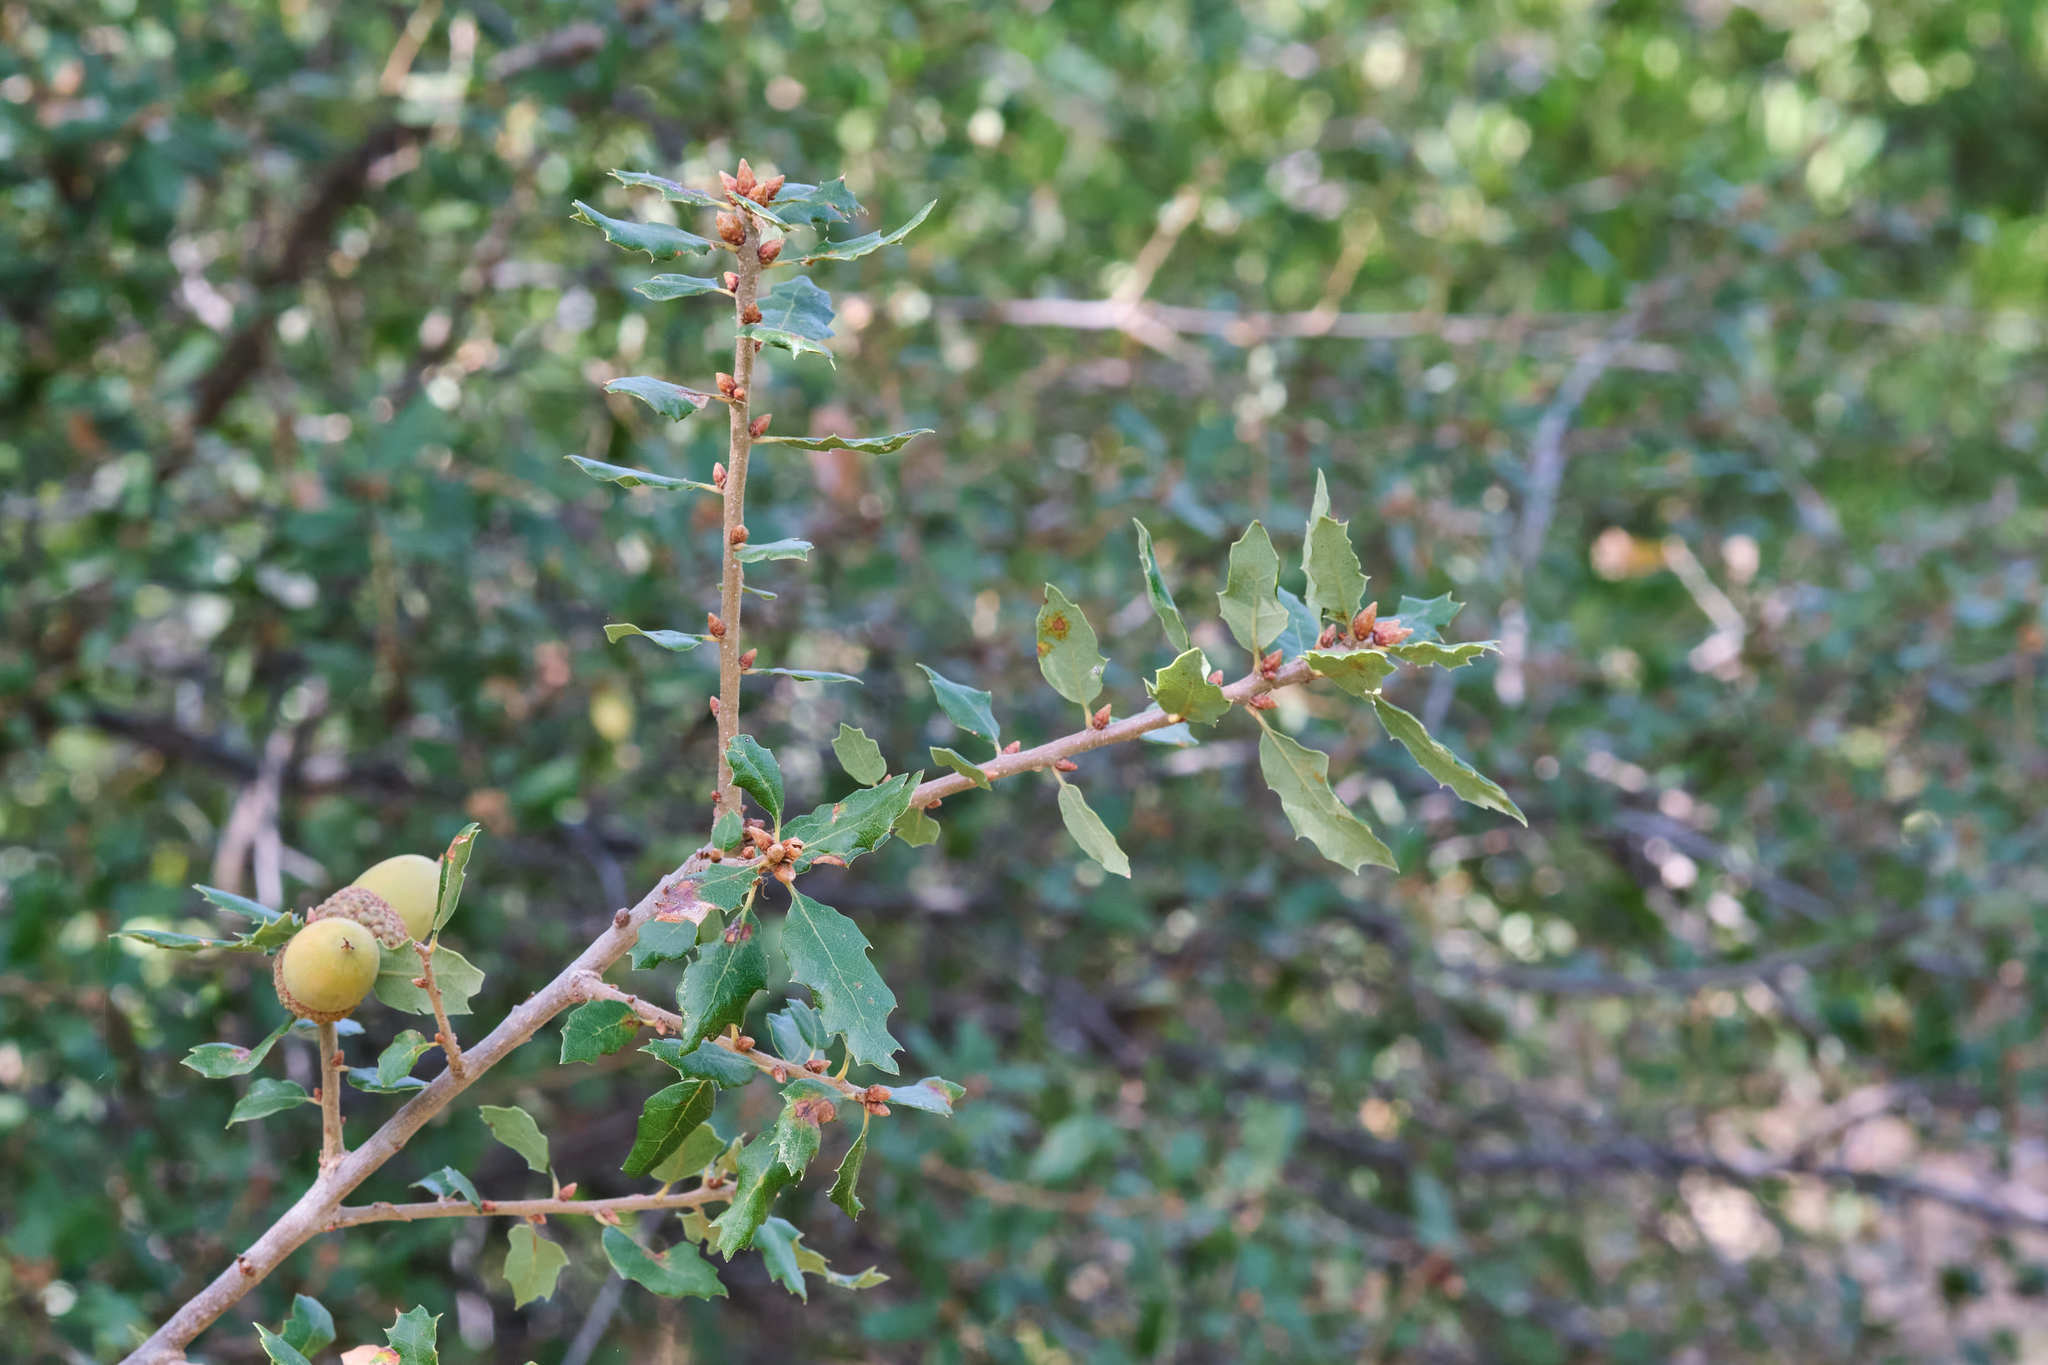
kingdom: Plantae
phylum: Tracheophyta
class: Magnoliopsida
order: Fagales
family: Fagaceae
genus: Quercus
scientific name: Quercus berberidifolia
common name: California scrub oak
